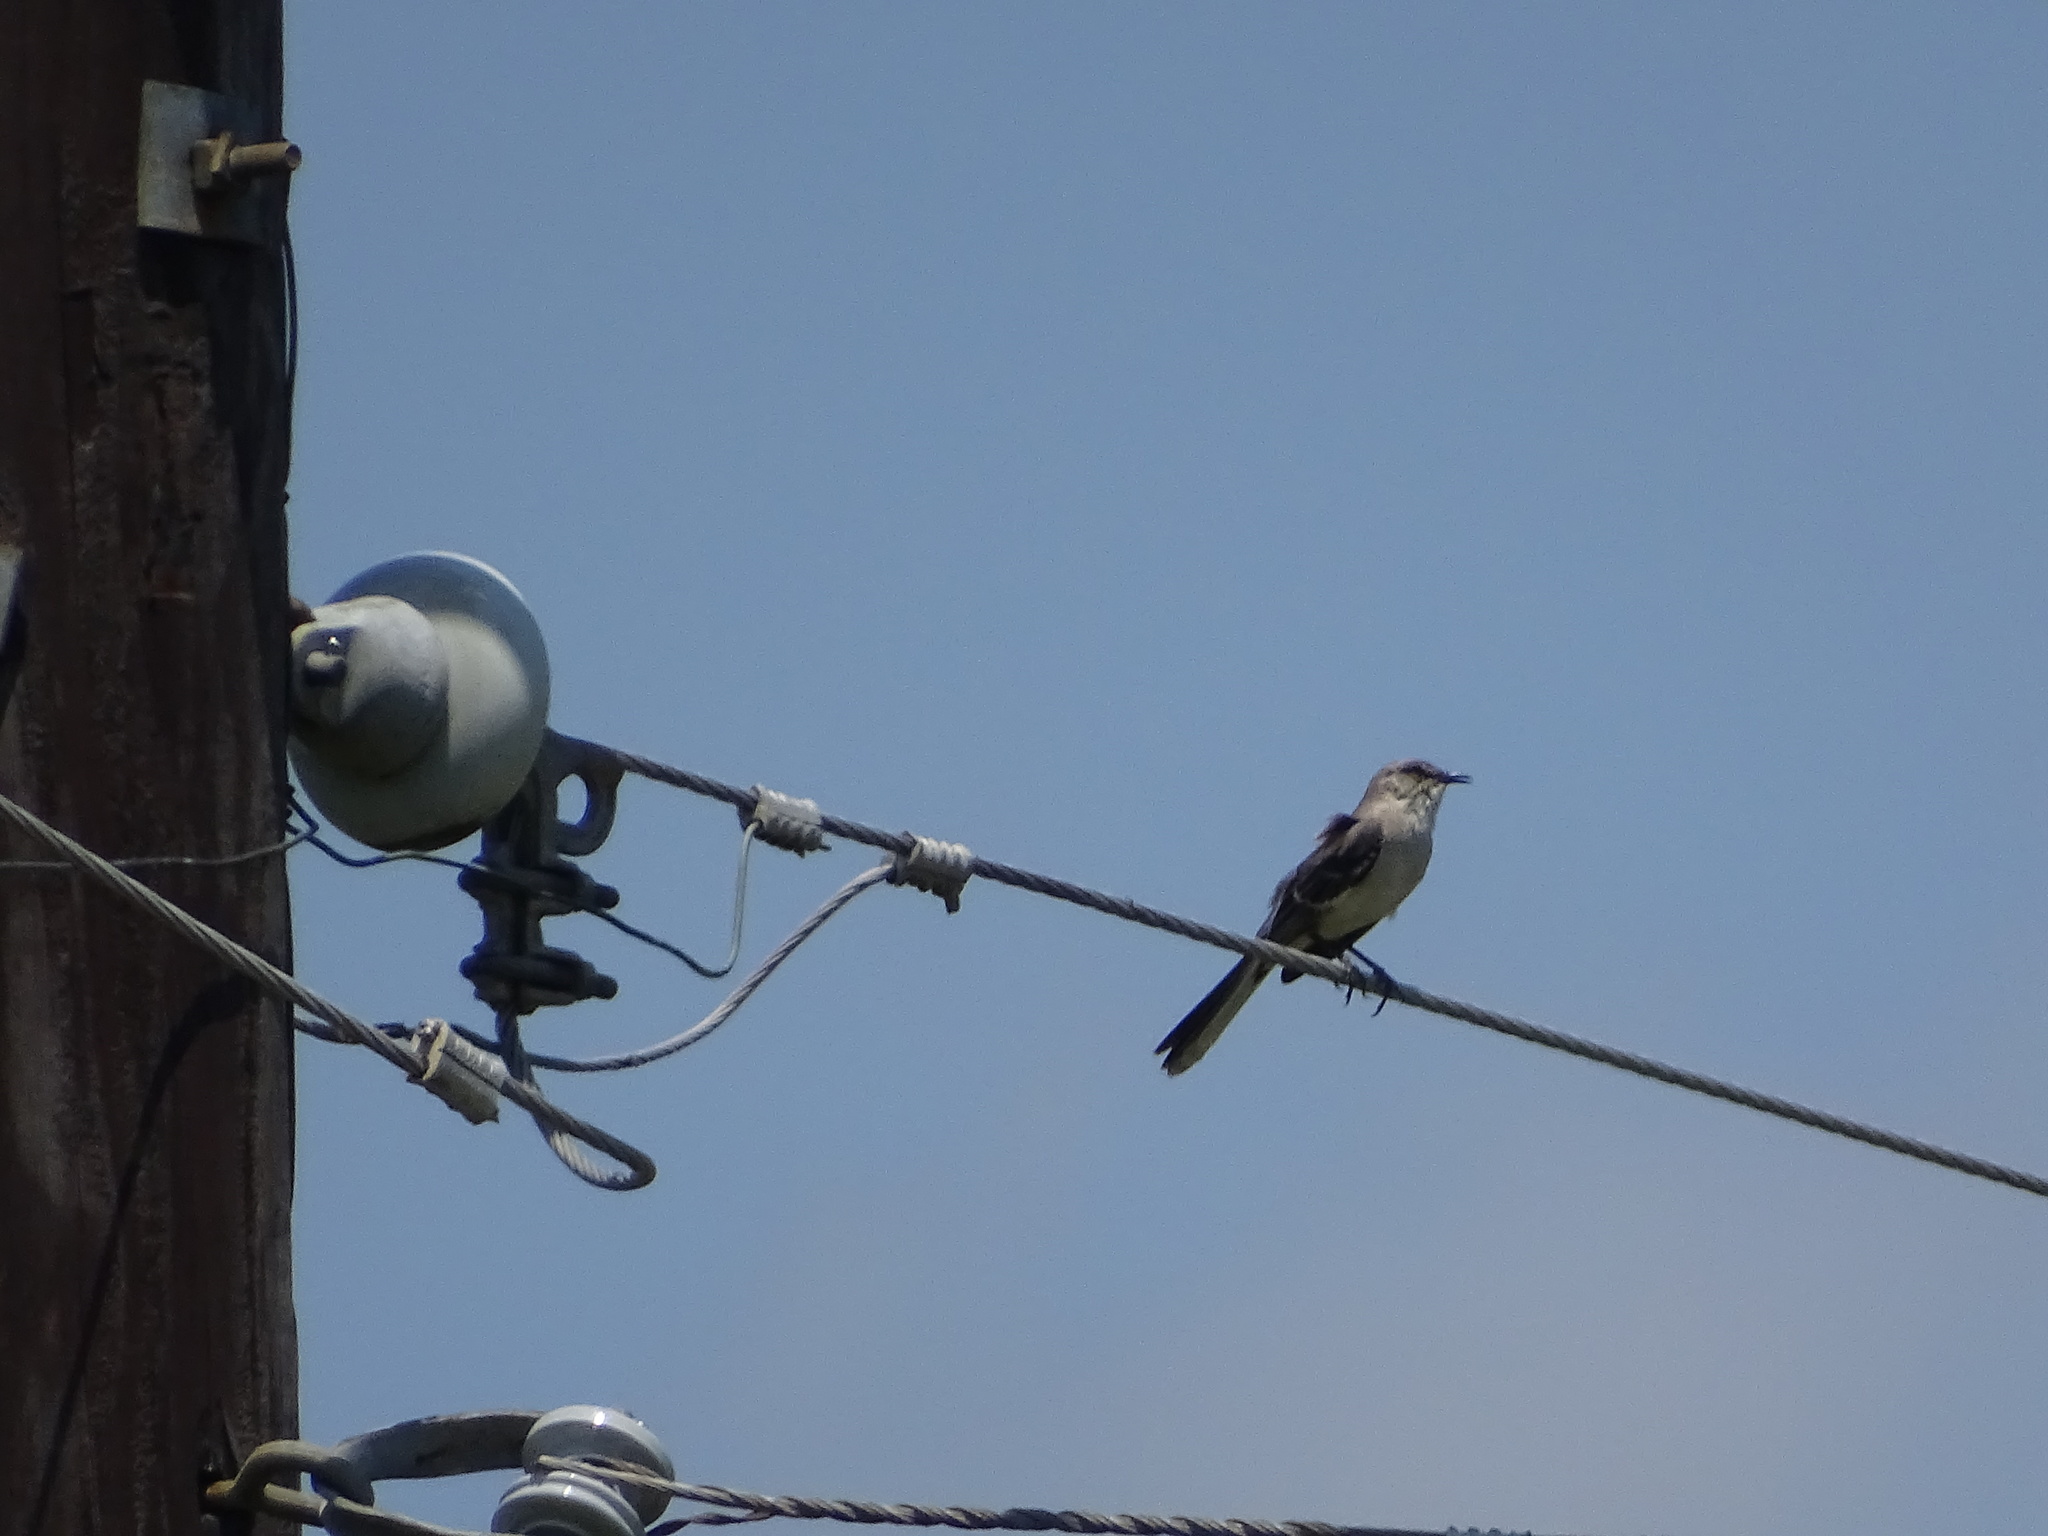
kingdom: Animalia
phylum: Chordata
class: Aves
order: Passeriformes
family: Mimidae
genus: Mimus
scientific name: Mimus polyglottos
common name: Northern mockingbird
